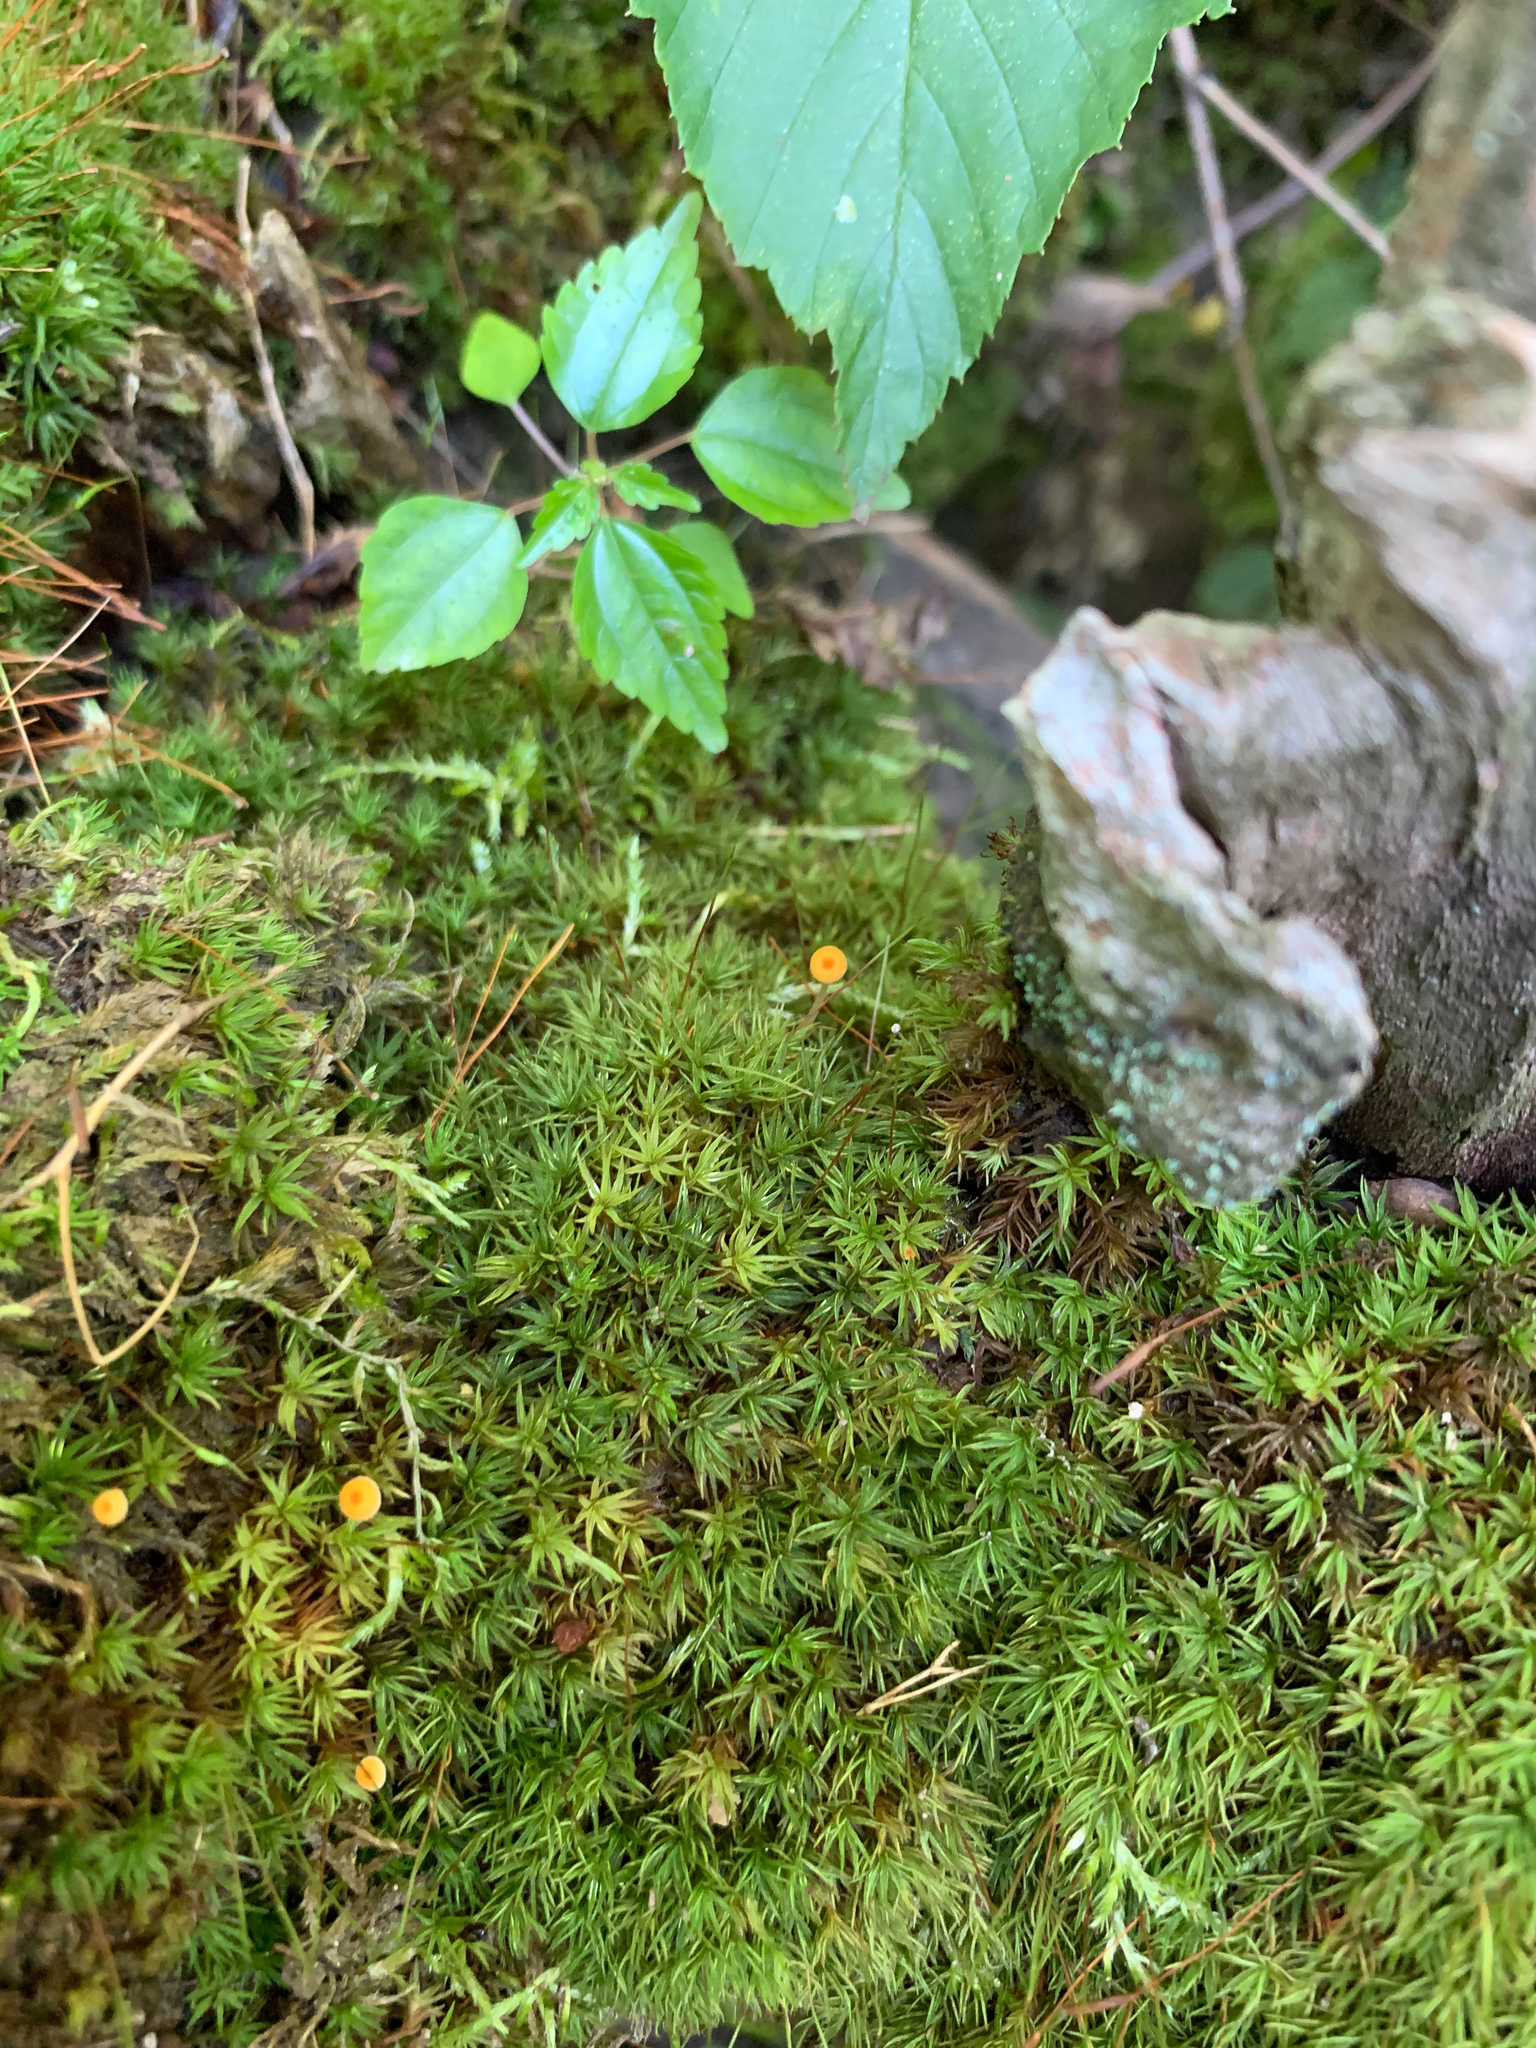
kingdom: Fungi
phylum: Basidiomycota
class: Agaricomycetes
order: Hymenochaetales
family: Rickenellaceae
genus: Rickenella
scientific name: Rickenella fibula
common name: Orange mosscap
